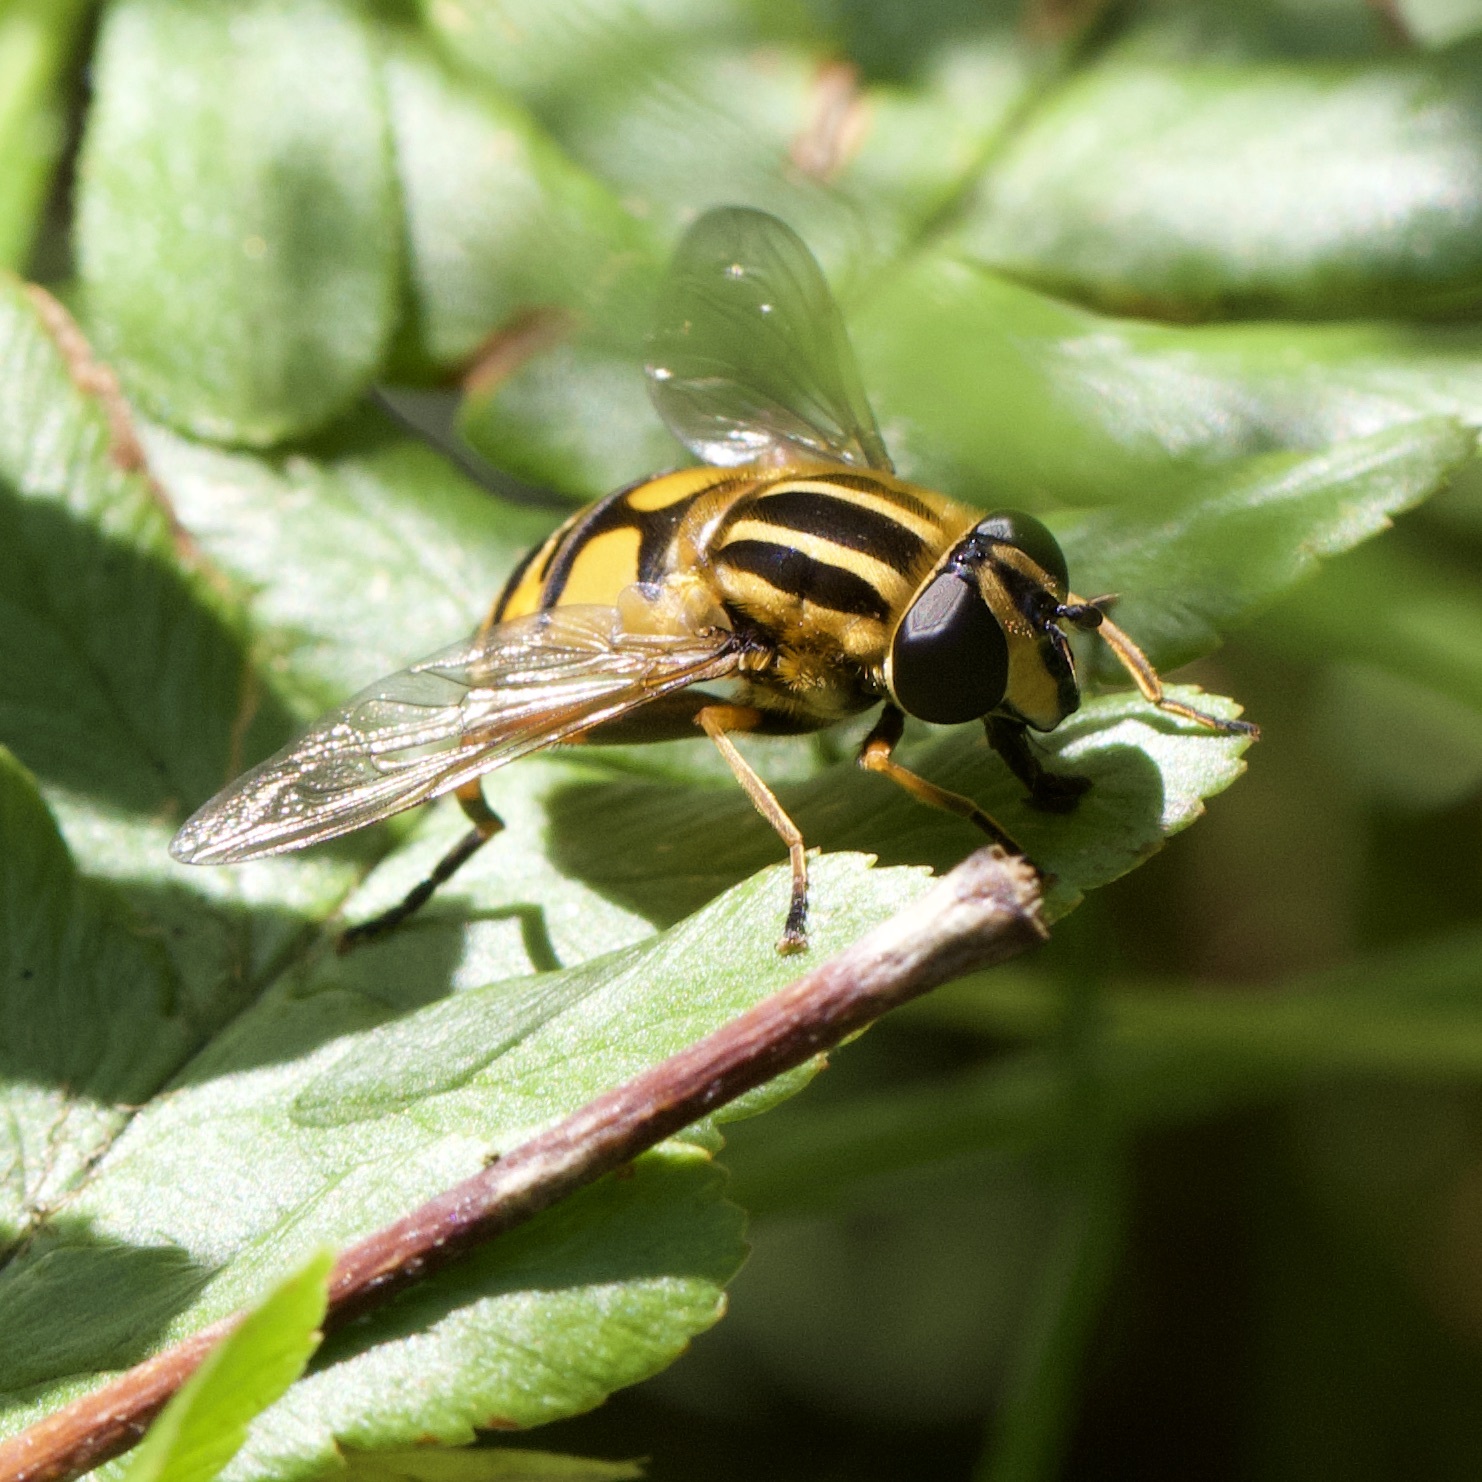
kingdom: Animalia
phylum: Arthropoda
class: Insecta
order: Diptera
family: Syrphidae
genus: Helophilus
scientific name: Helophilus pendulus
